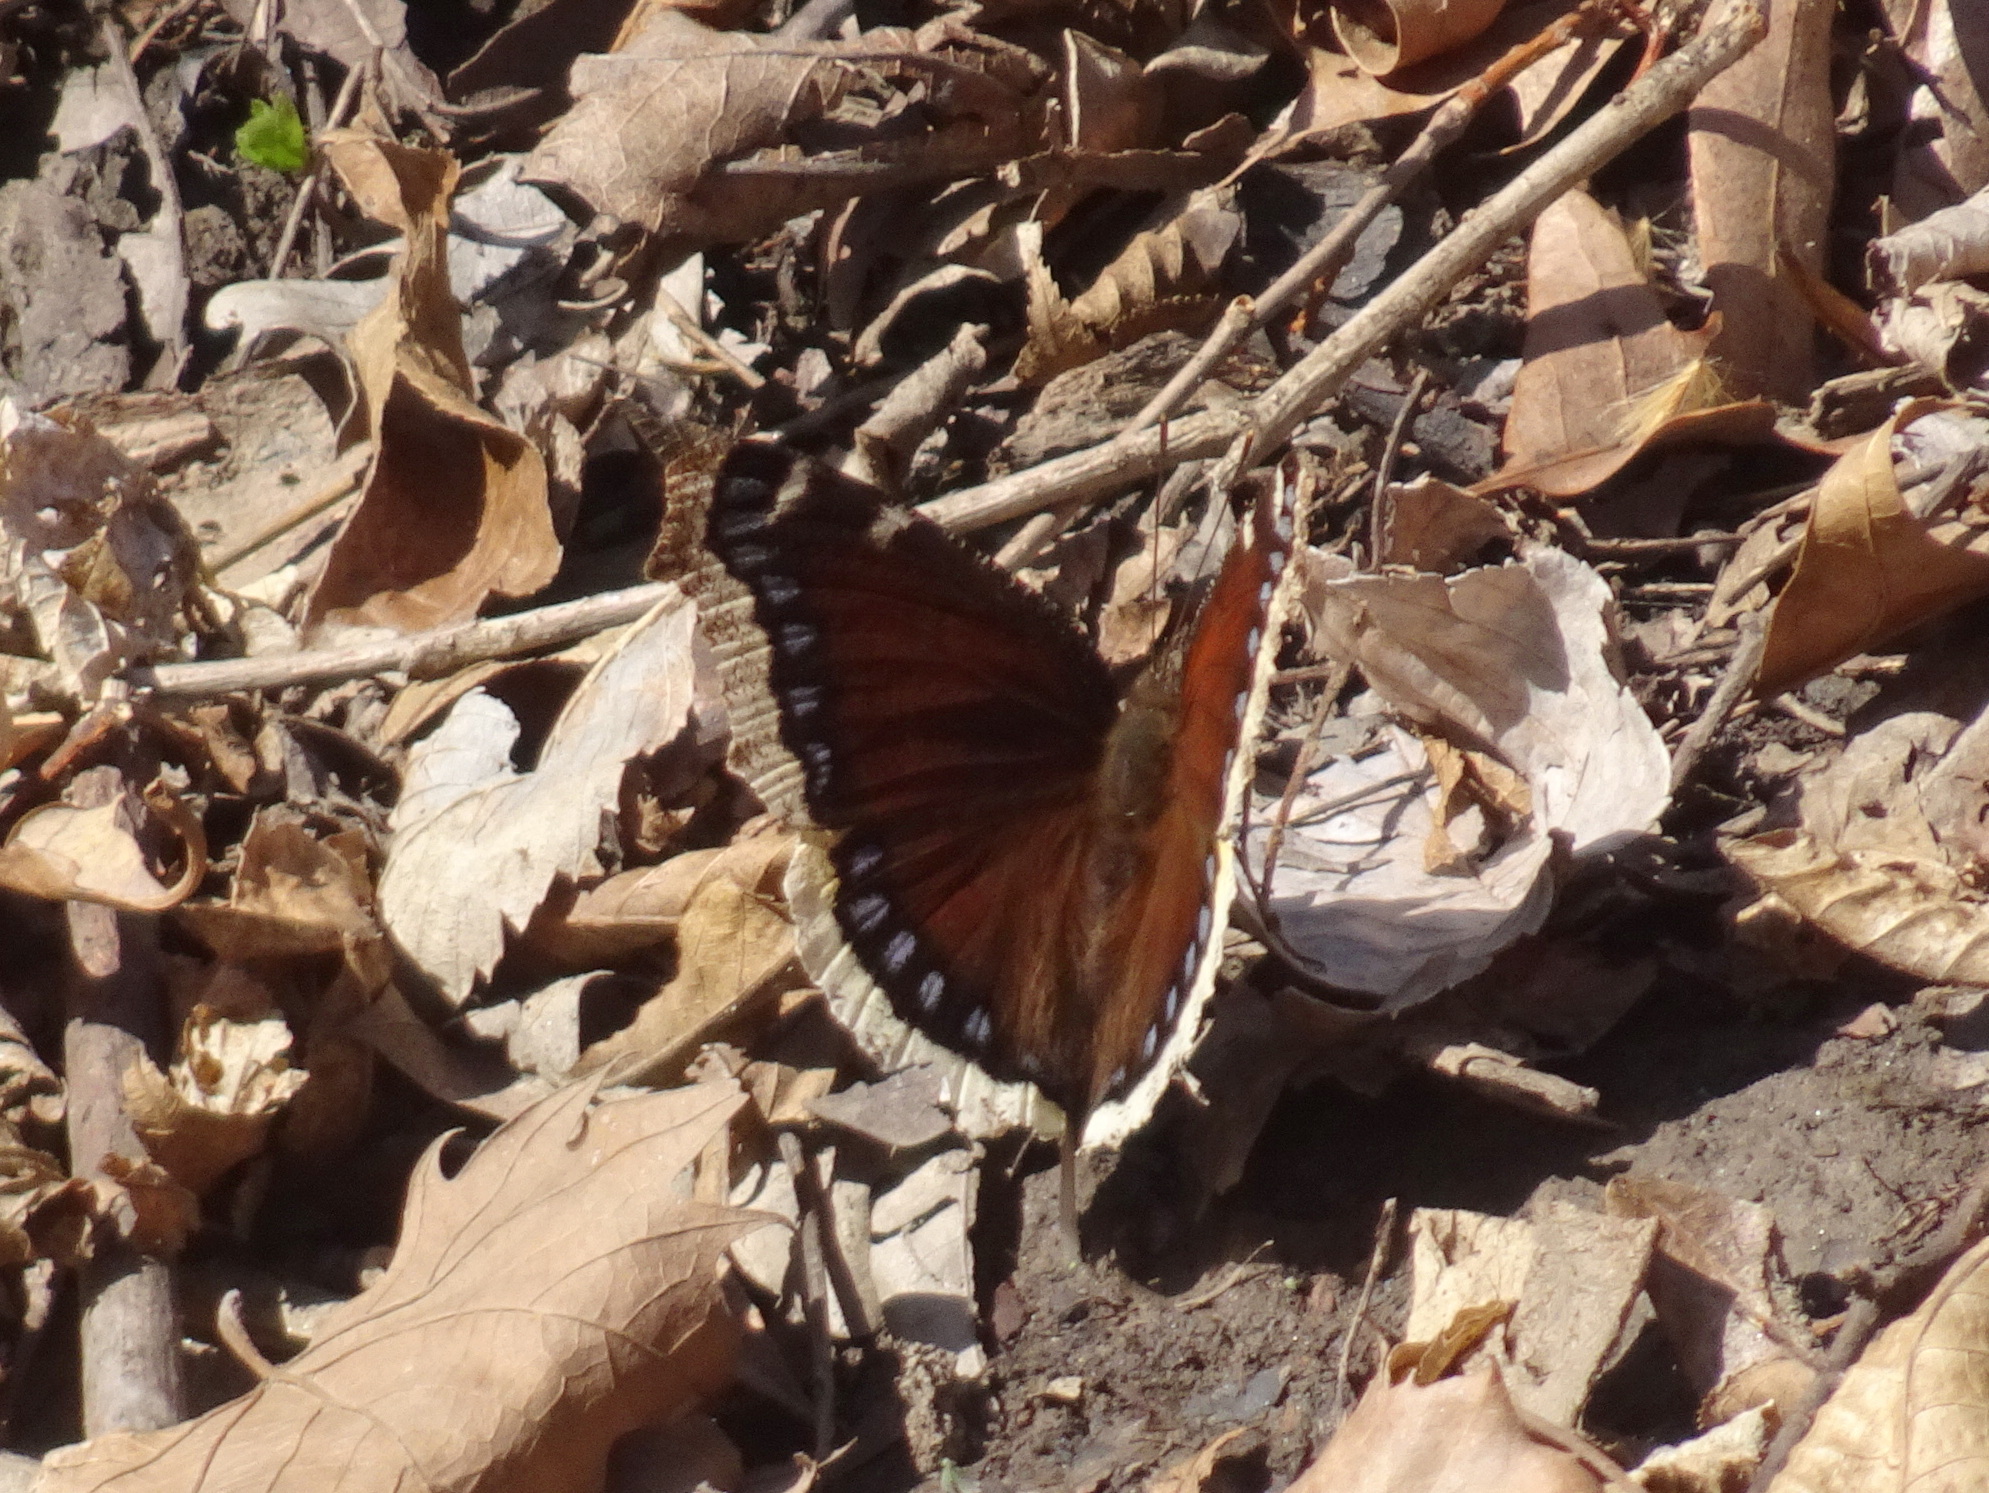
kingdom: Animalia
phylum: Arthropoda
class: Insecta
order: Lepidoptera
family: Nymphalidae
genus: Nymphalis
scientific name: Nymphalis antiopa
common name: Camberwell beauty
